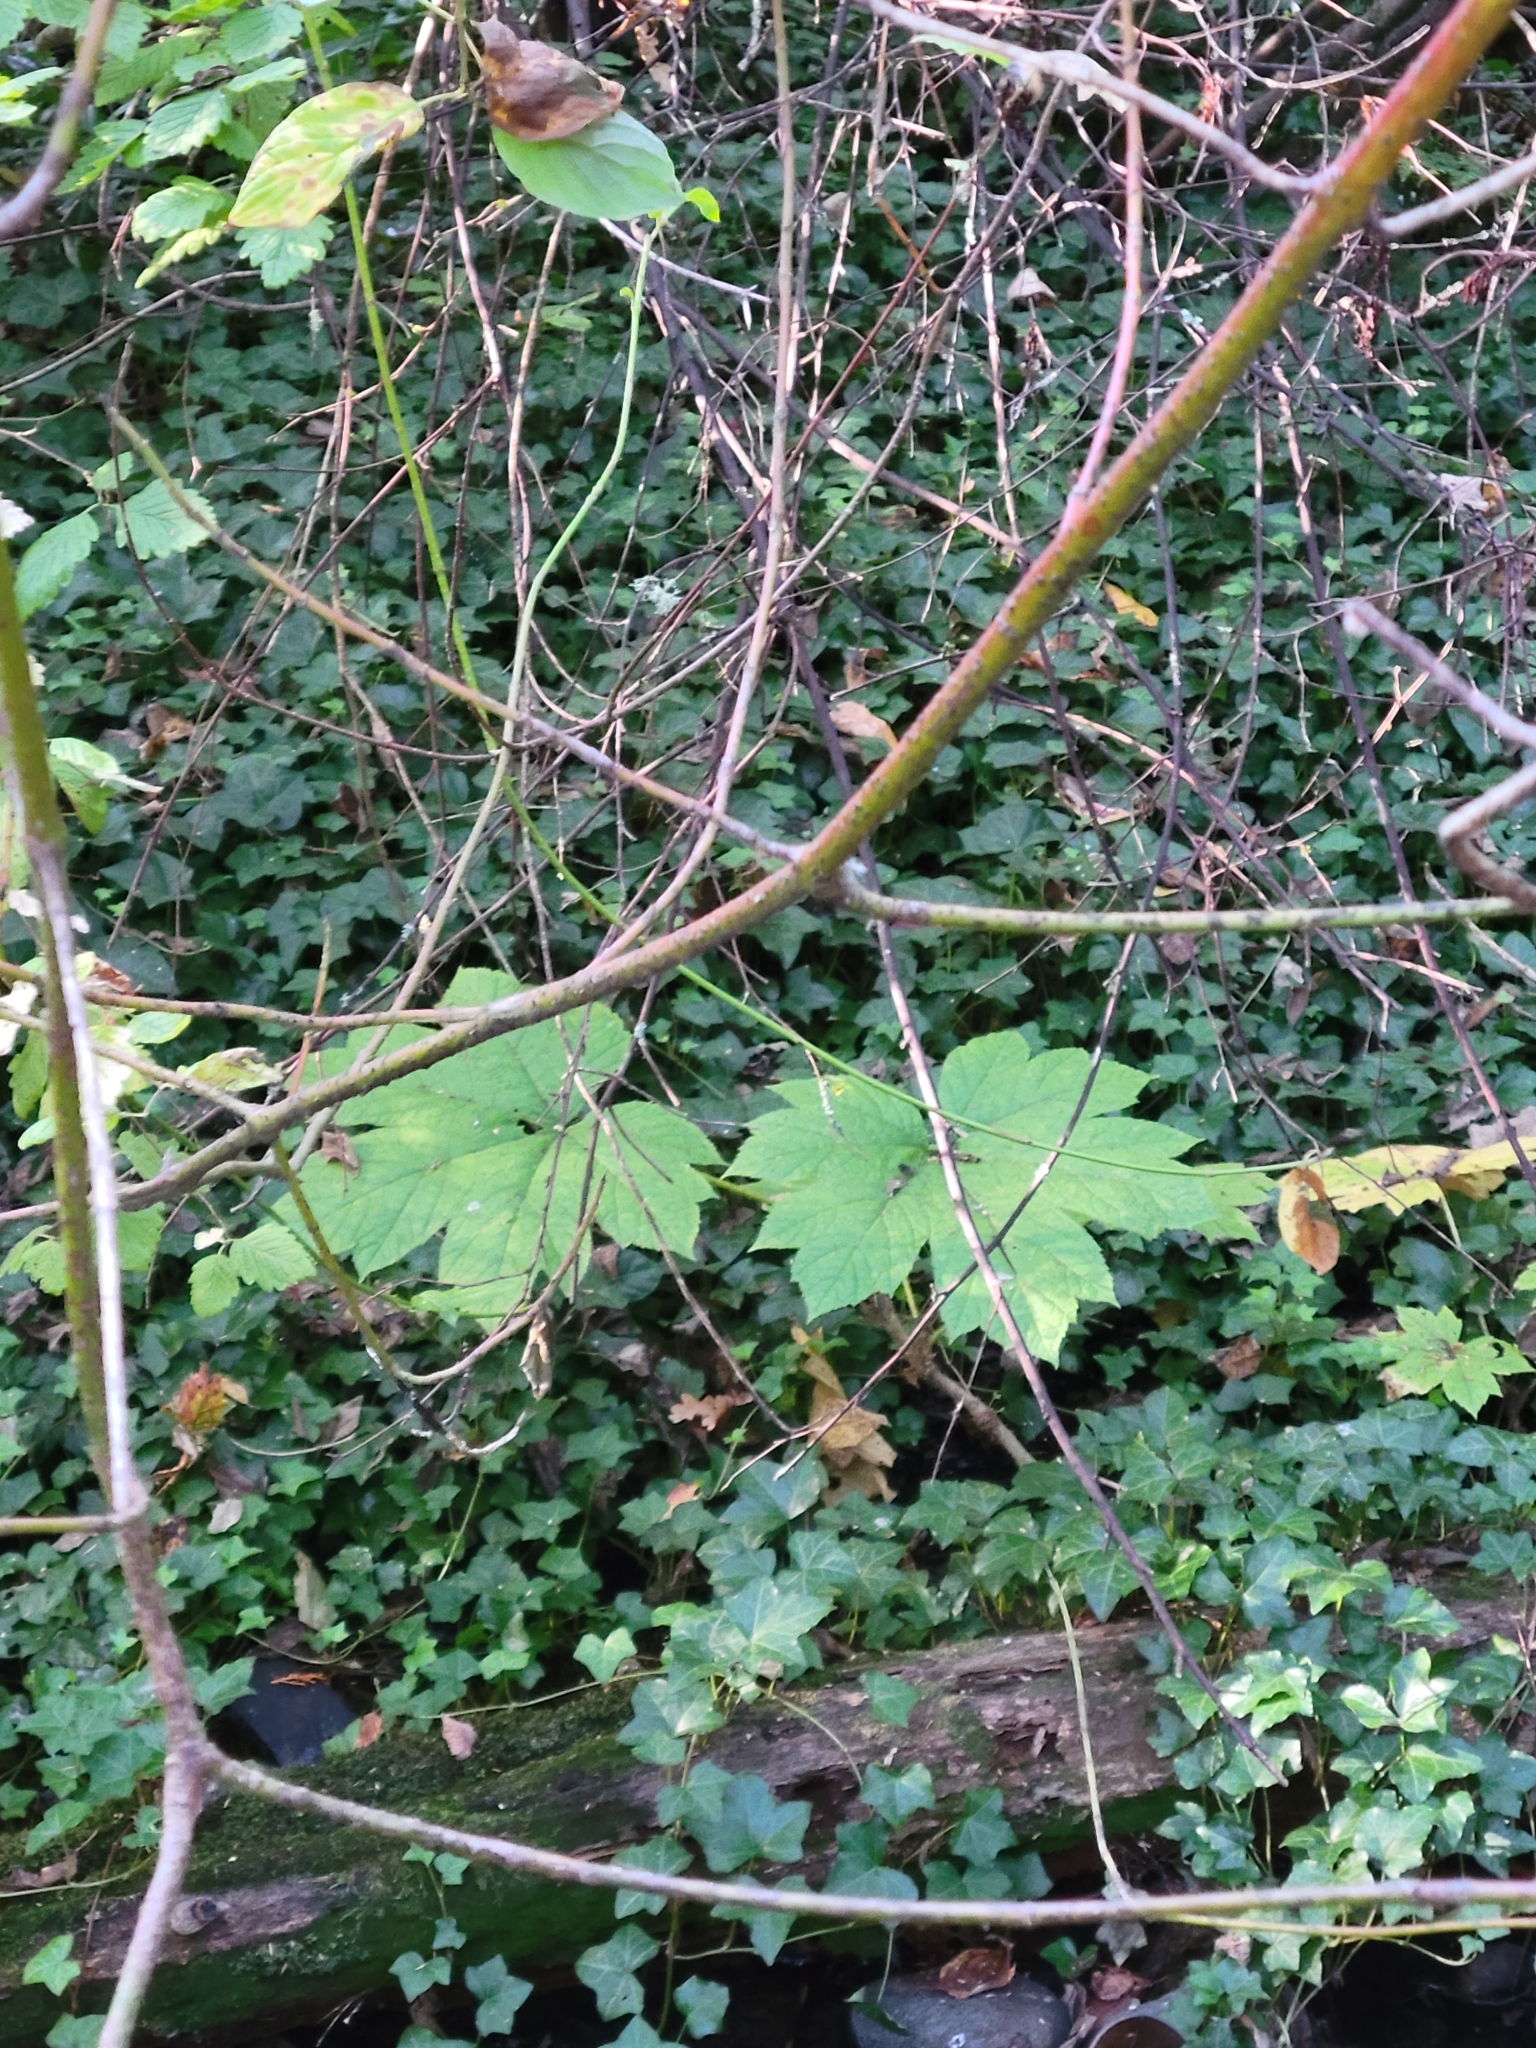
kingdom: Plantae
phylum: Tracheophyta
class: Magnoliopsida
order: Apiales
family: Araliaceae
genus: Oplopanax
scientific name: Oplopanax horridus
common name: Devil's walking-stick
